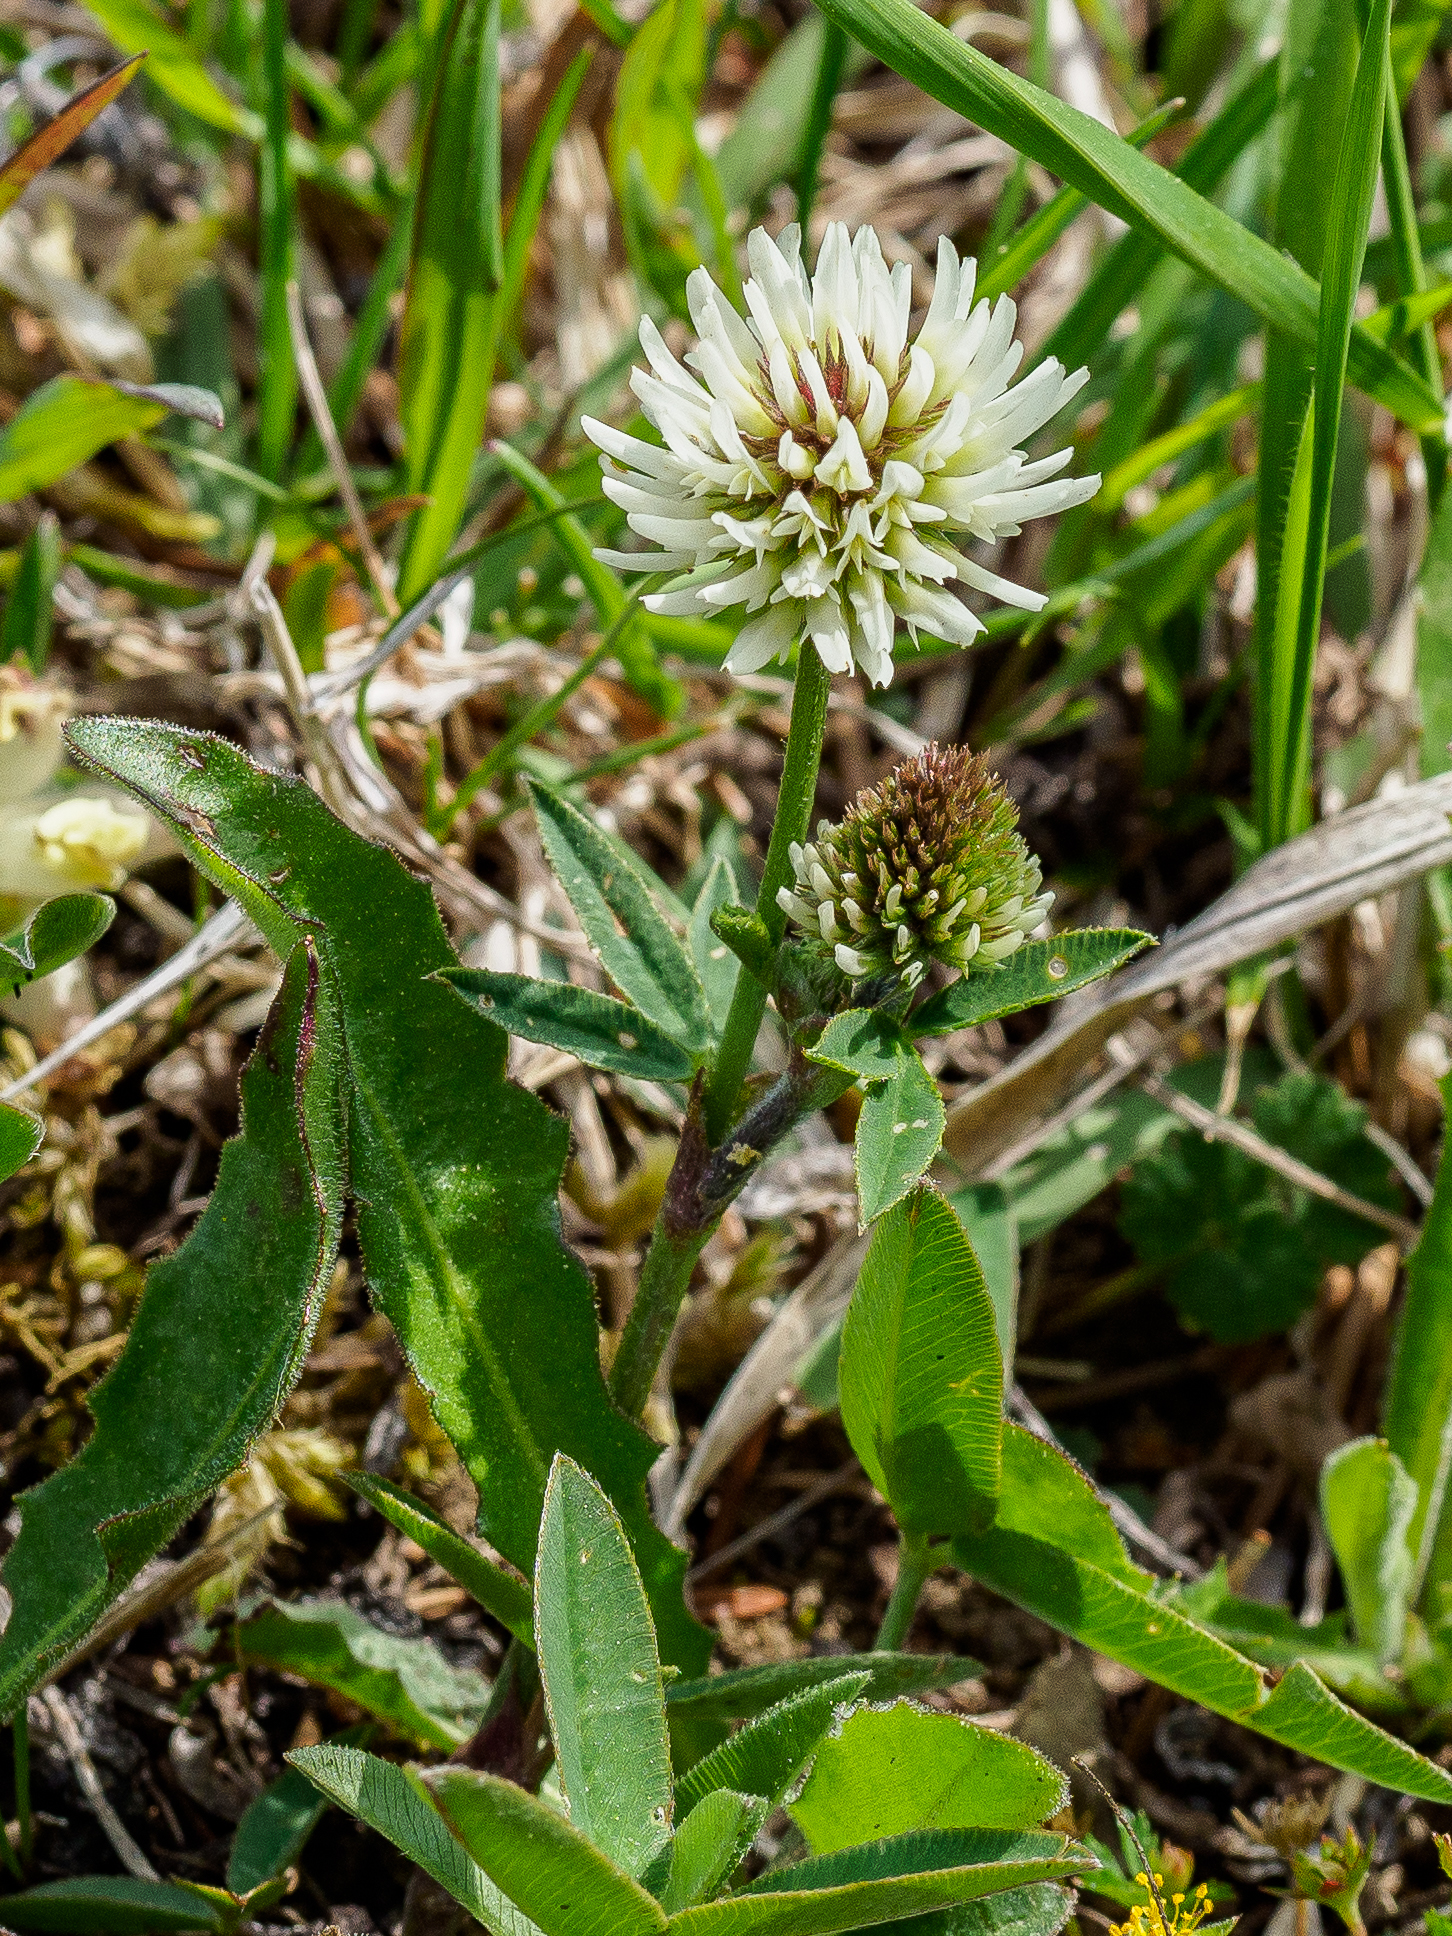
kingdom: Plantae
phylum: Tracheophyta
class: Magnoliopsida
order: Fabales
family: Fabaceae
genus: Trifolium
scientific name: Trifolium montanum
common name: Mountain clover
